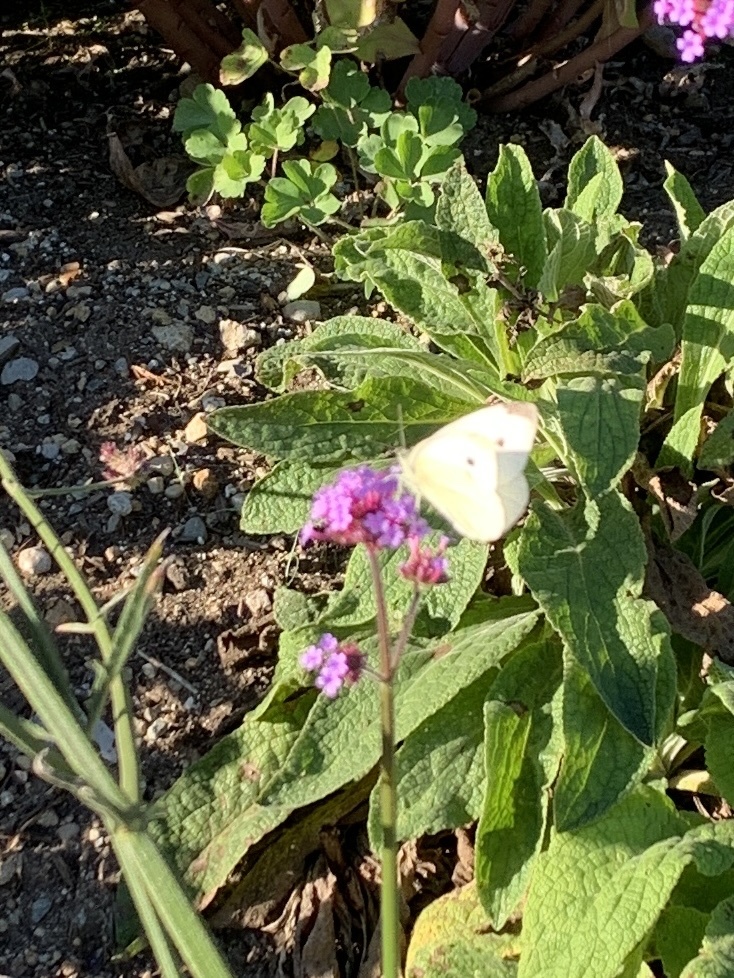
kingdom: Animalia
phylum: Arthropoda
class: Insecta
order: Lepidoptera
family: Pieridae
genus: Pieris
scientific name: Pieris rapae
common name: Small white
